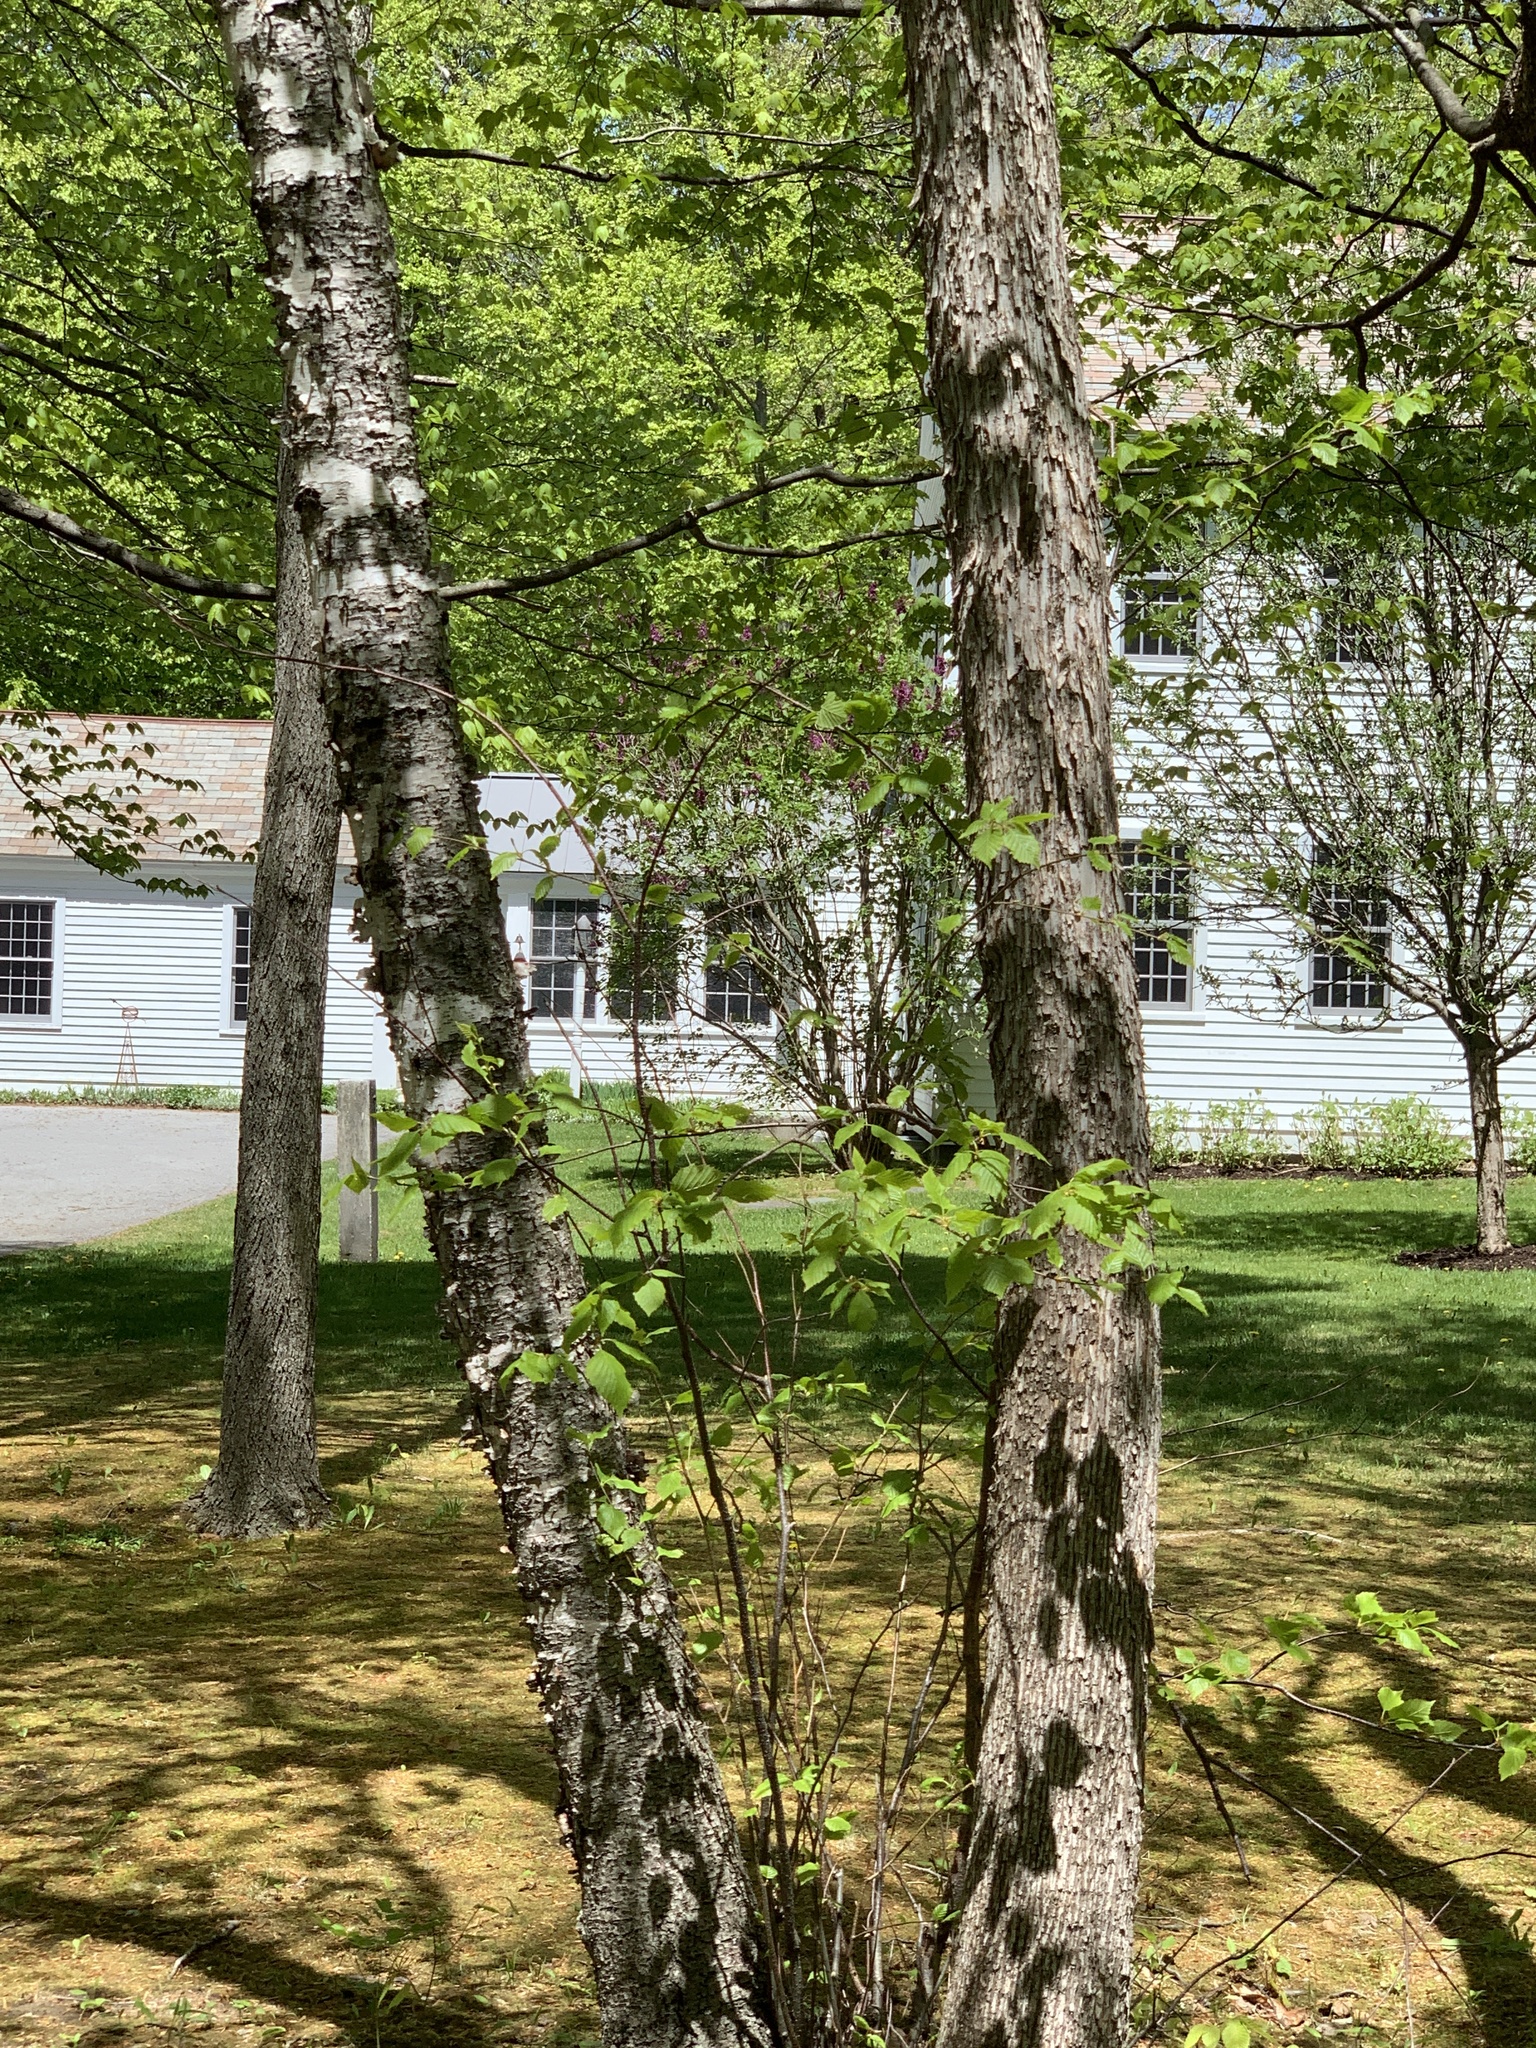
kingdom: Plantae
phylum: Tracheophyta
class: Magnoliopsida
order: Fagales
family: Betulaceae
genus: Ostrya
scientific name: Ostrya virginiana
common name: Ironwood
